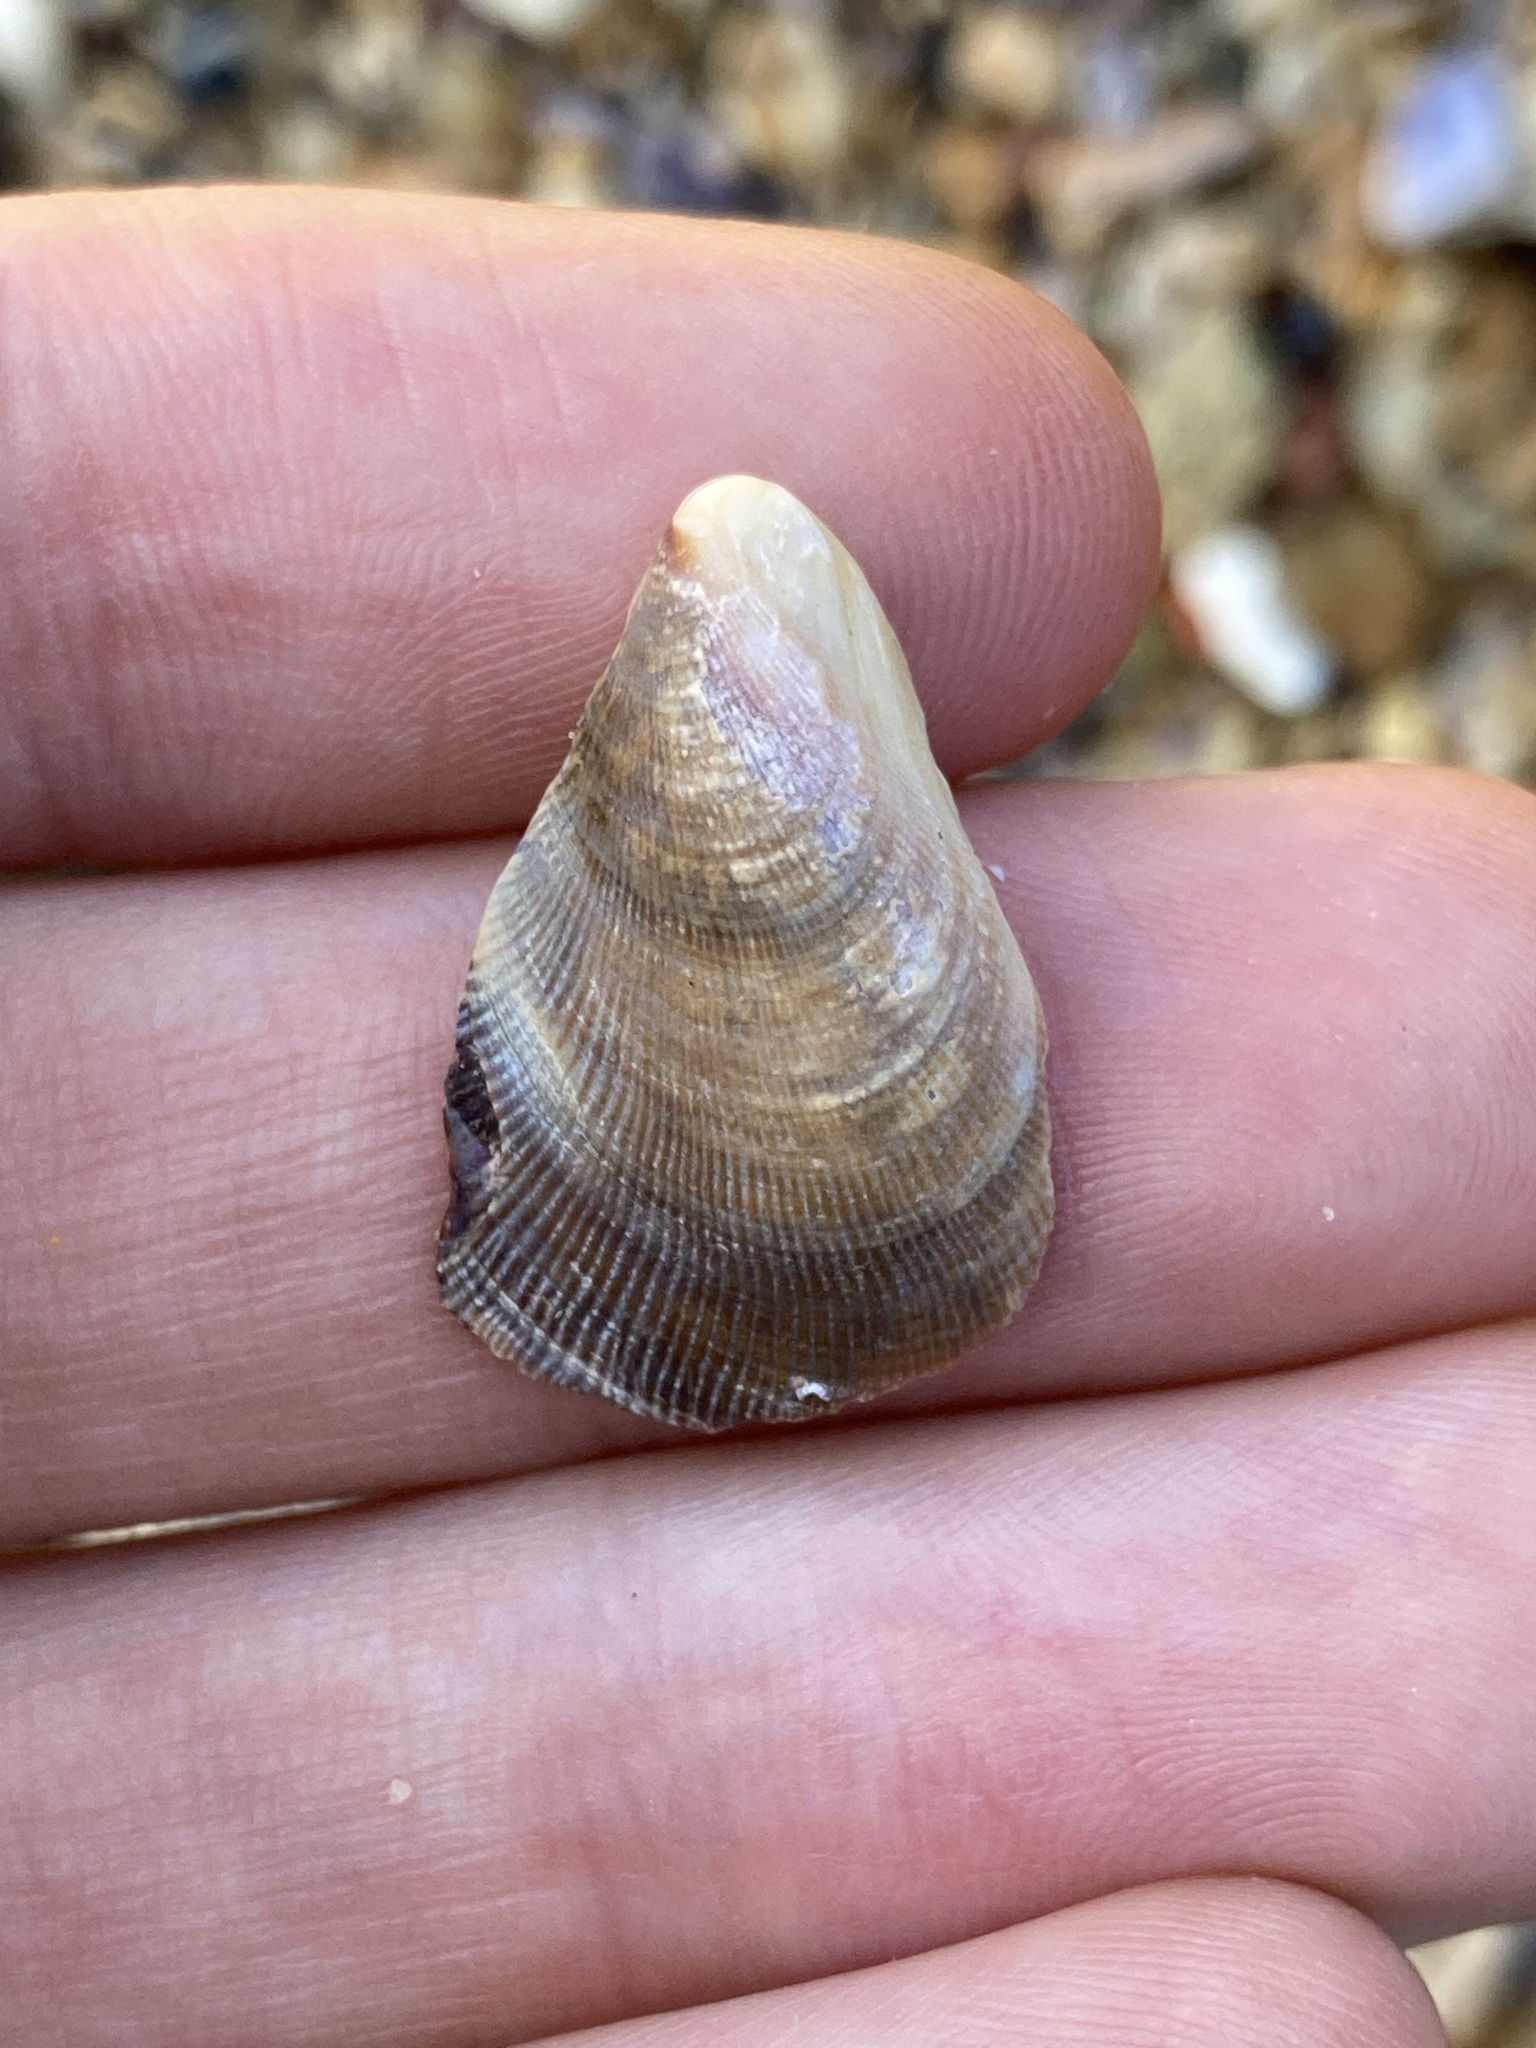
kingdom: Animalia
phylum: Mollusca
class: Bivalvia
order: Mytilida
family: Mytilidae
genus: Trichomya
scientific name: Trichomya hirsuta
